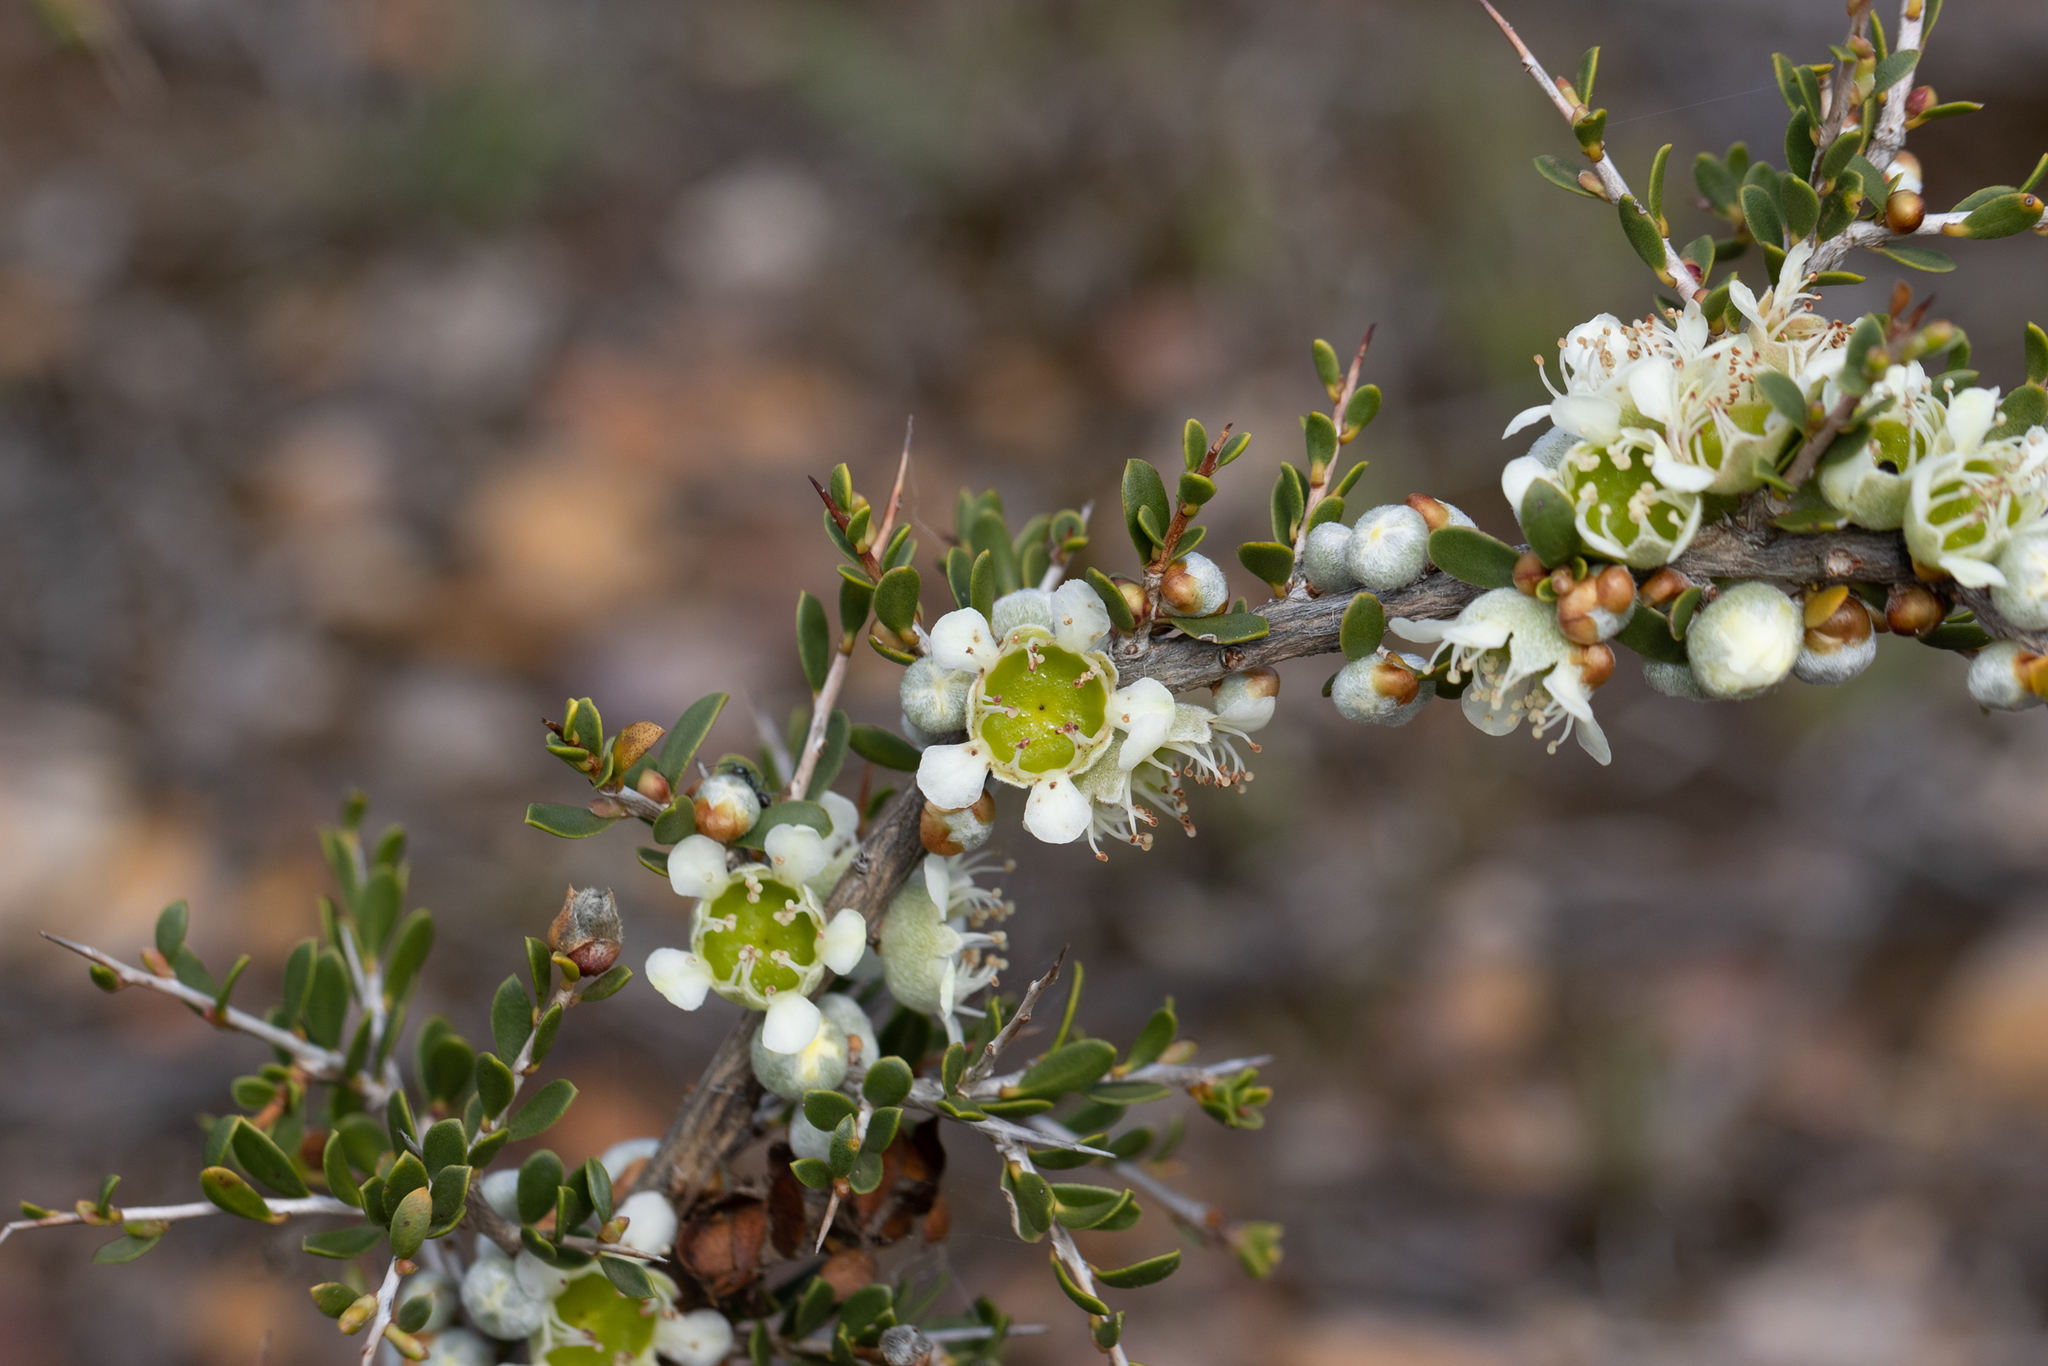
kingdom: Plantae
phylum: Tracheophyta
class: Magnoliopsida
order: Myrtales
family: Myrtaceae
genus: Leptospermum
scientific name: Leptospermum spinescens
